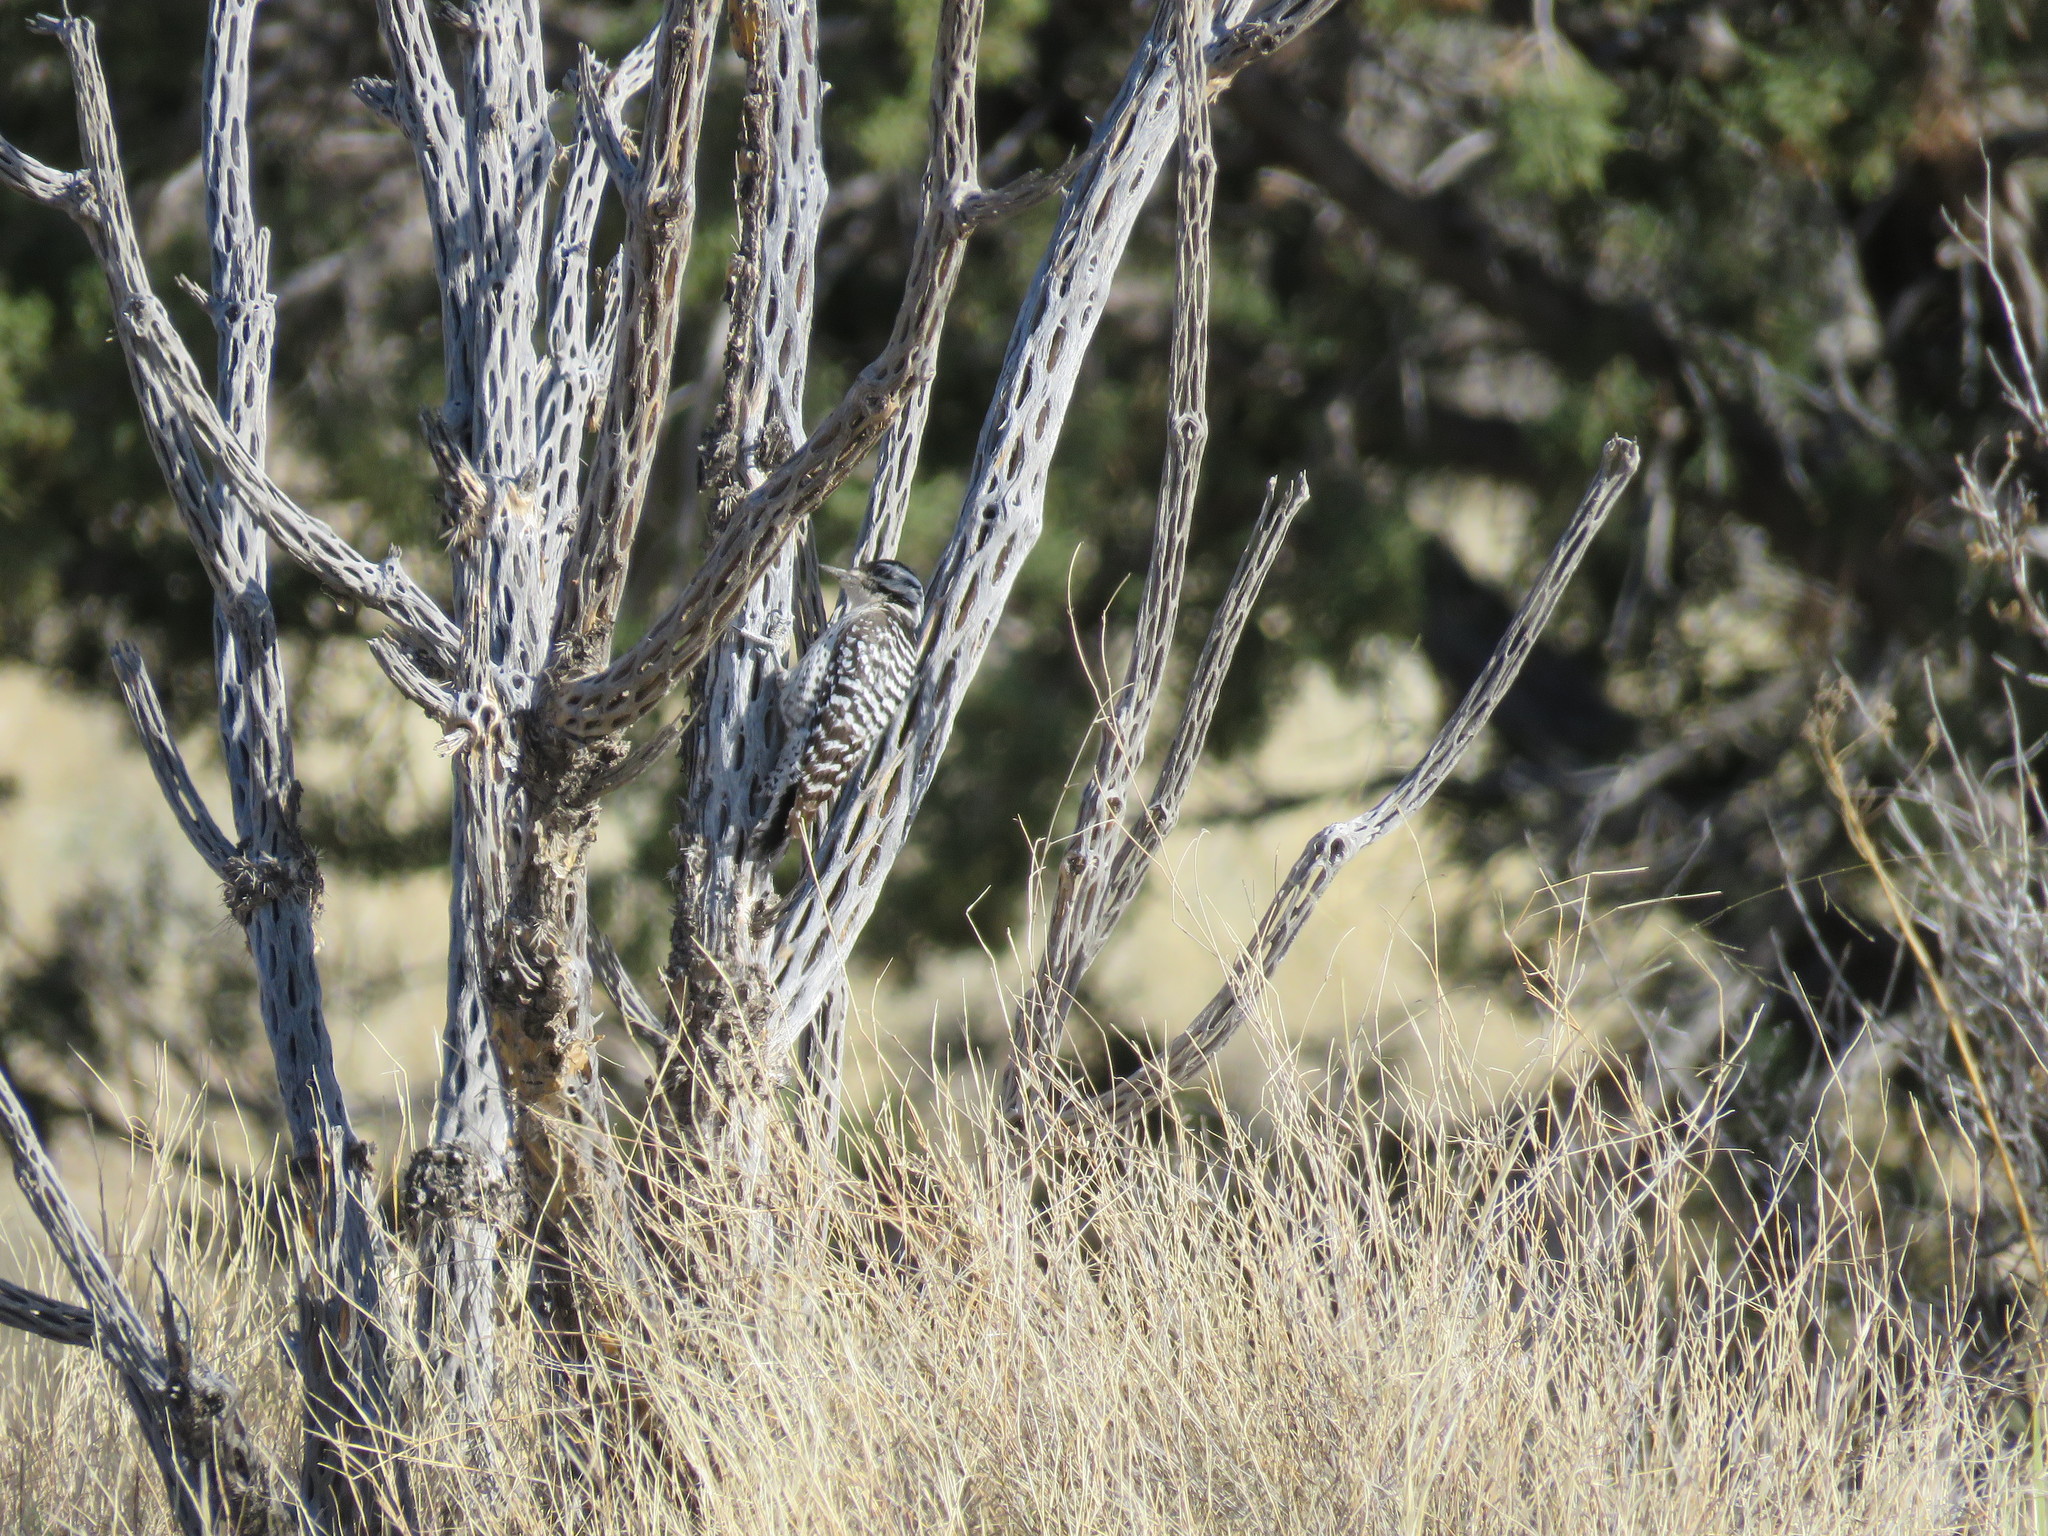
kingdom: Animalia
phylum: Chordata
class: Aves
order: Piciformes
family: Picidae
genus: Dryobates
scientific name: Dryobates scalaris
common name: Ladder-backed woodpecker
